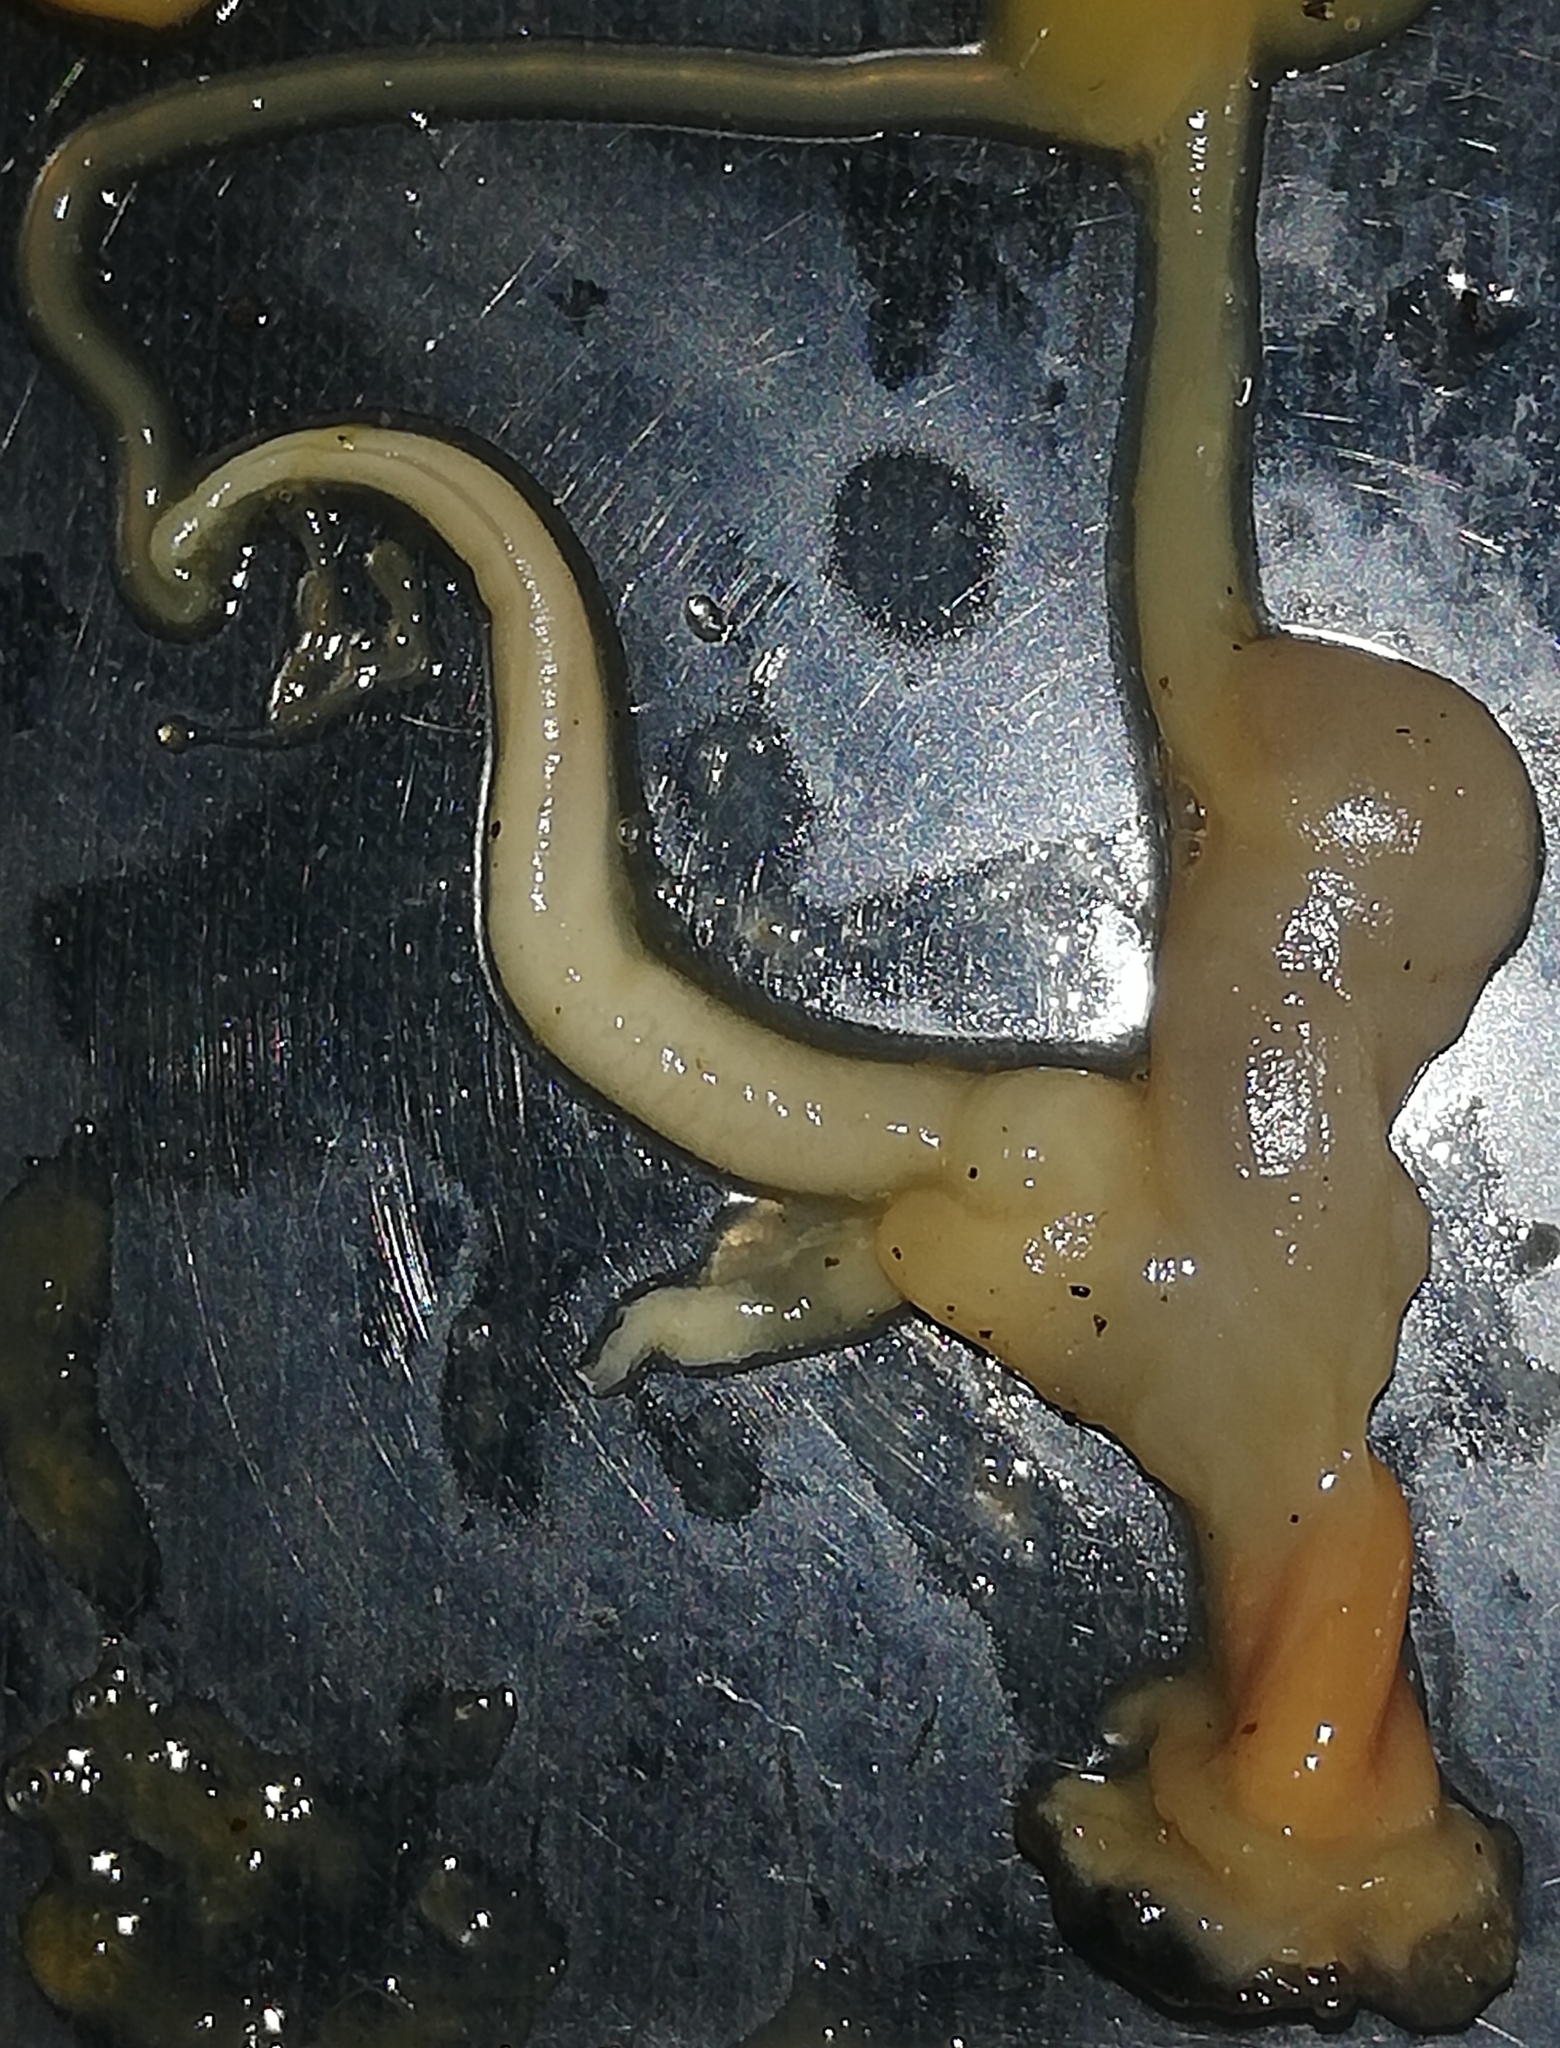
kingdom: Animalia
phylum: Mollusca
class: Gastropoda
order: Stylommatophora
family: Arionidae
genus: Arion
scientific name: Arion vulgaris
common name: Lusitanian slug
